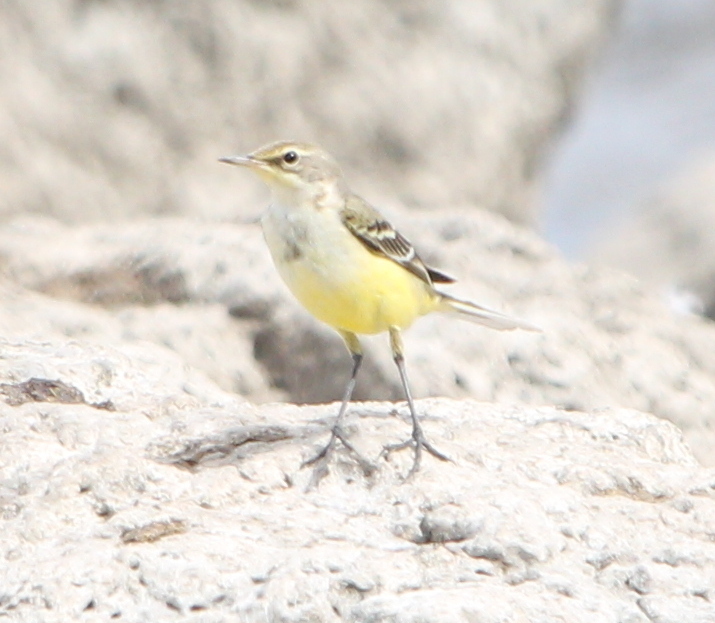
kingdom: Animalia
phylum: Chordata
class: Aves
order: Passeriformes
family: Motacillidae
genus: Motacilla
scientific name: Motacilla cinerea
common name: Grey wagtail
